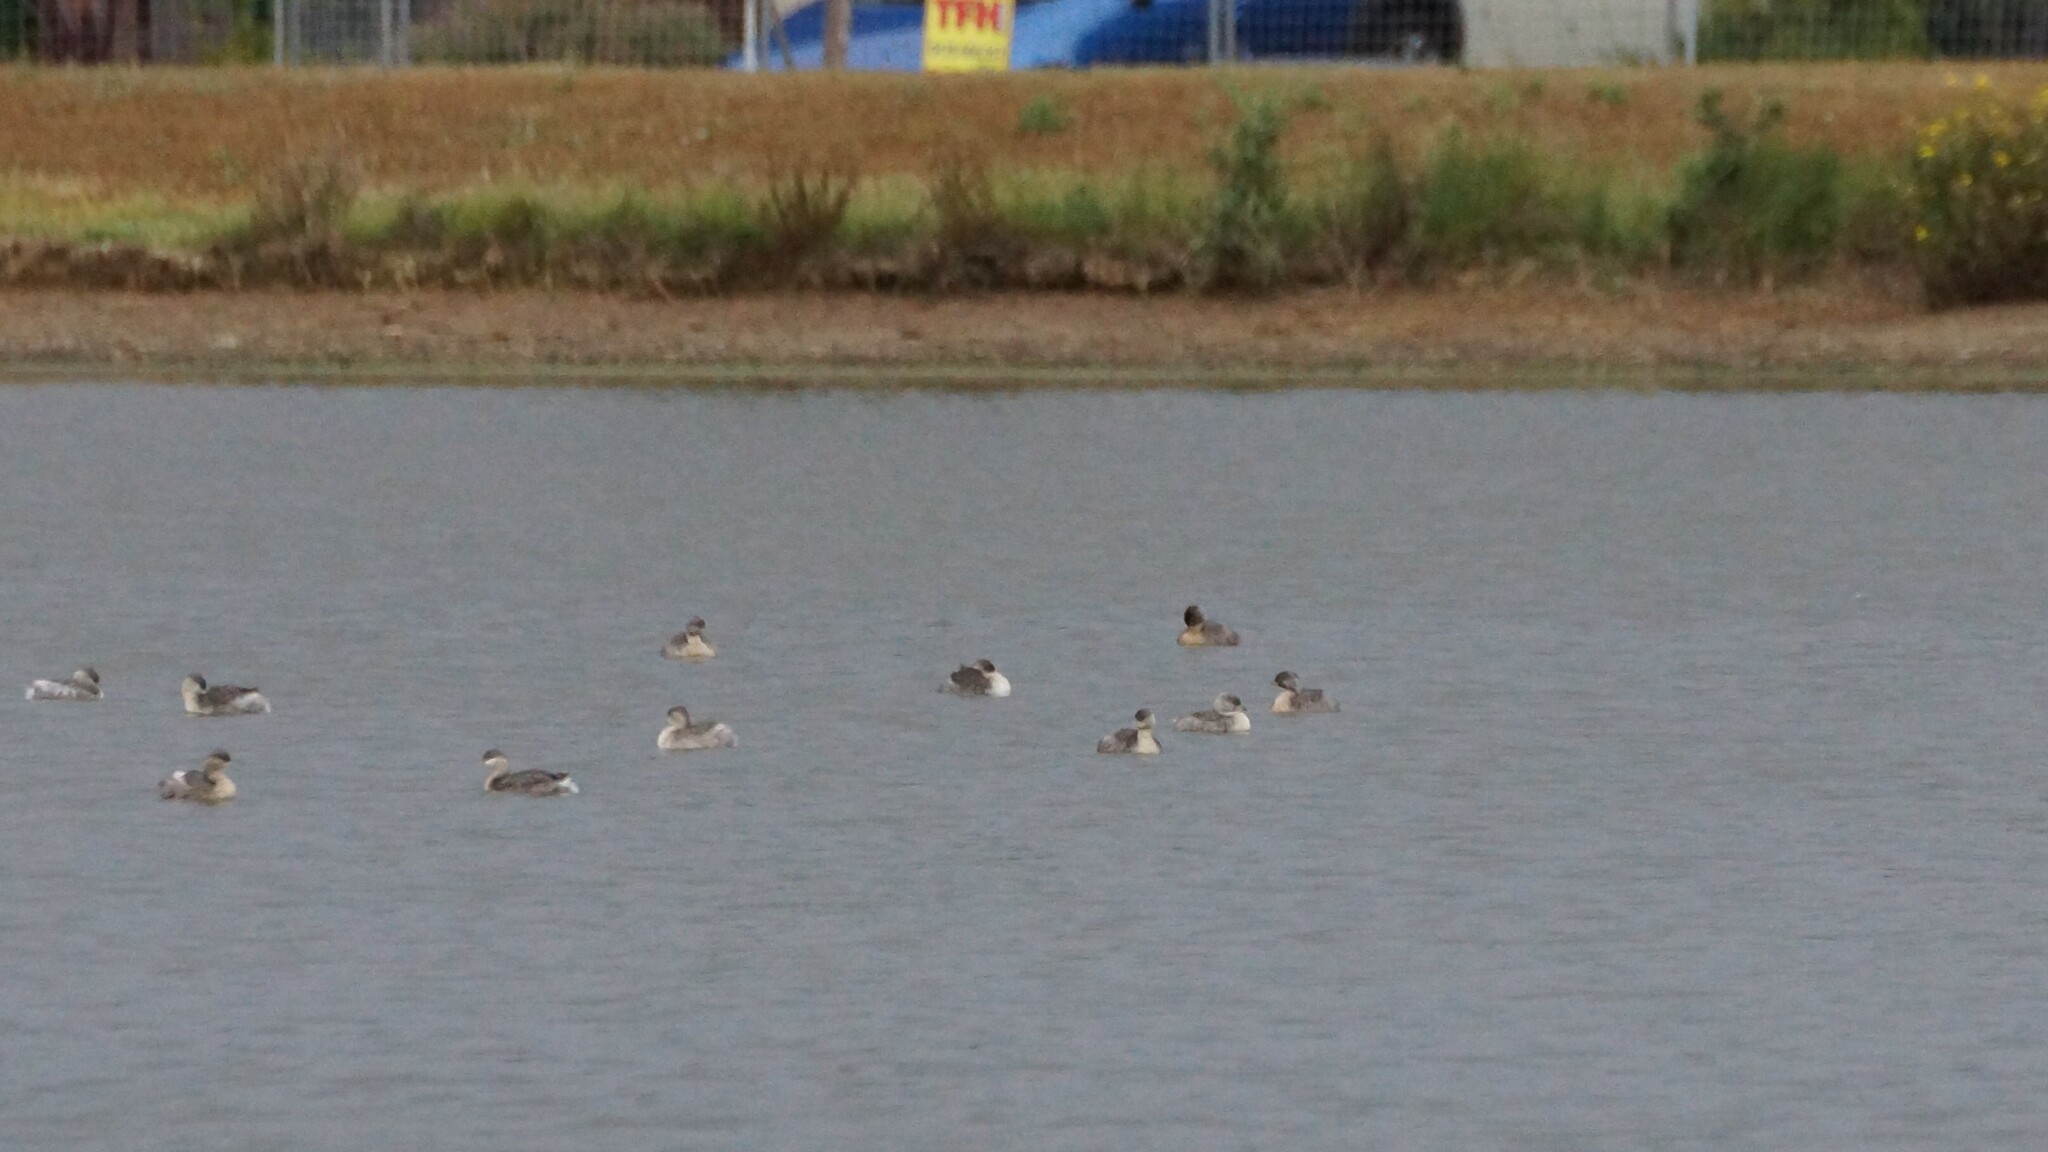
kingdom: Animalia
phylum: Chordata
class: Aves
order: Podicipediformes
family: Podicipedidae
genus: Poliocephalus
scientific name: Poliocephalus poliocephalus
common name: Hoary-headed grebe
